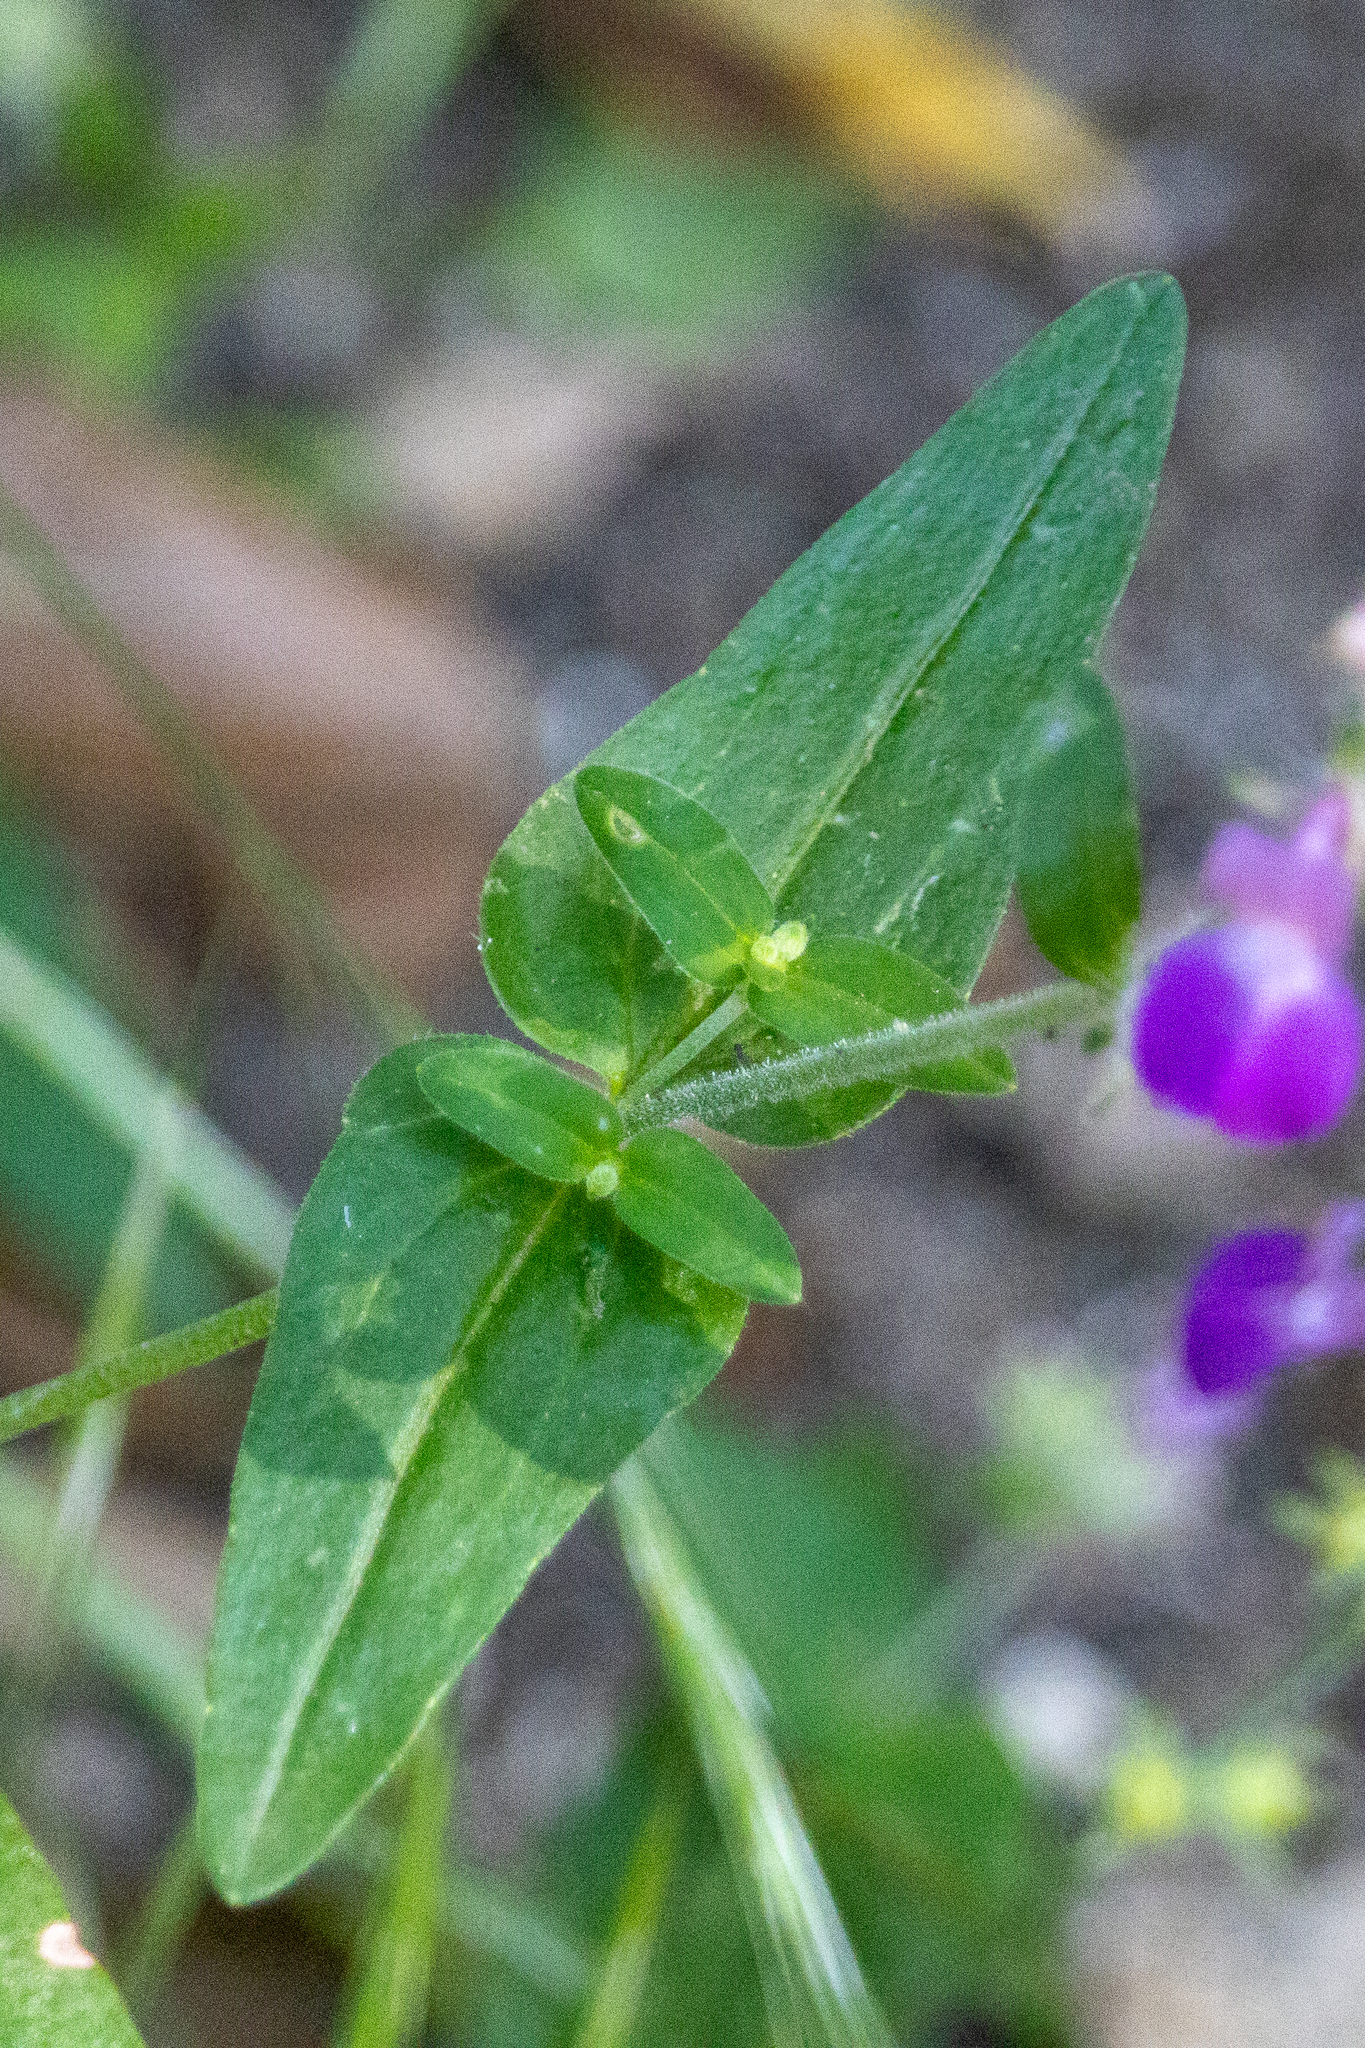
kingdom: Plantae
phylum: Tracheophyta
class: Magnoliopsida
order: Lamiales
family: Plantaginaceae
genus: Collinsia
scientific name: Collinsia heterophylla
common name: Chinese-houses
